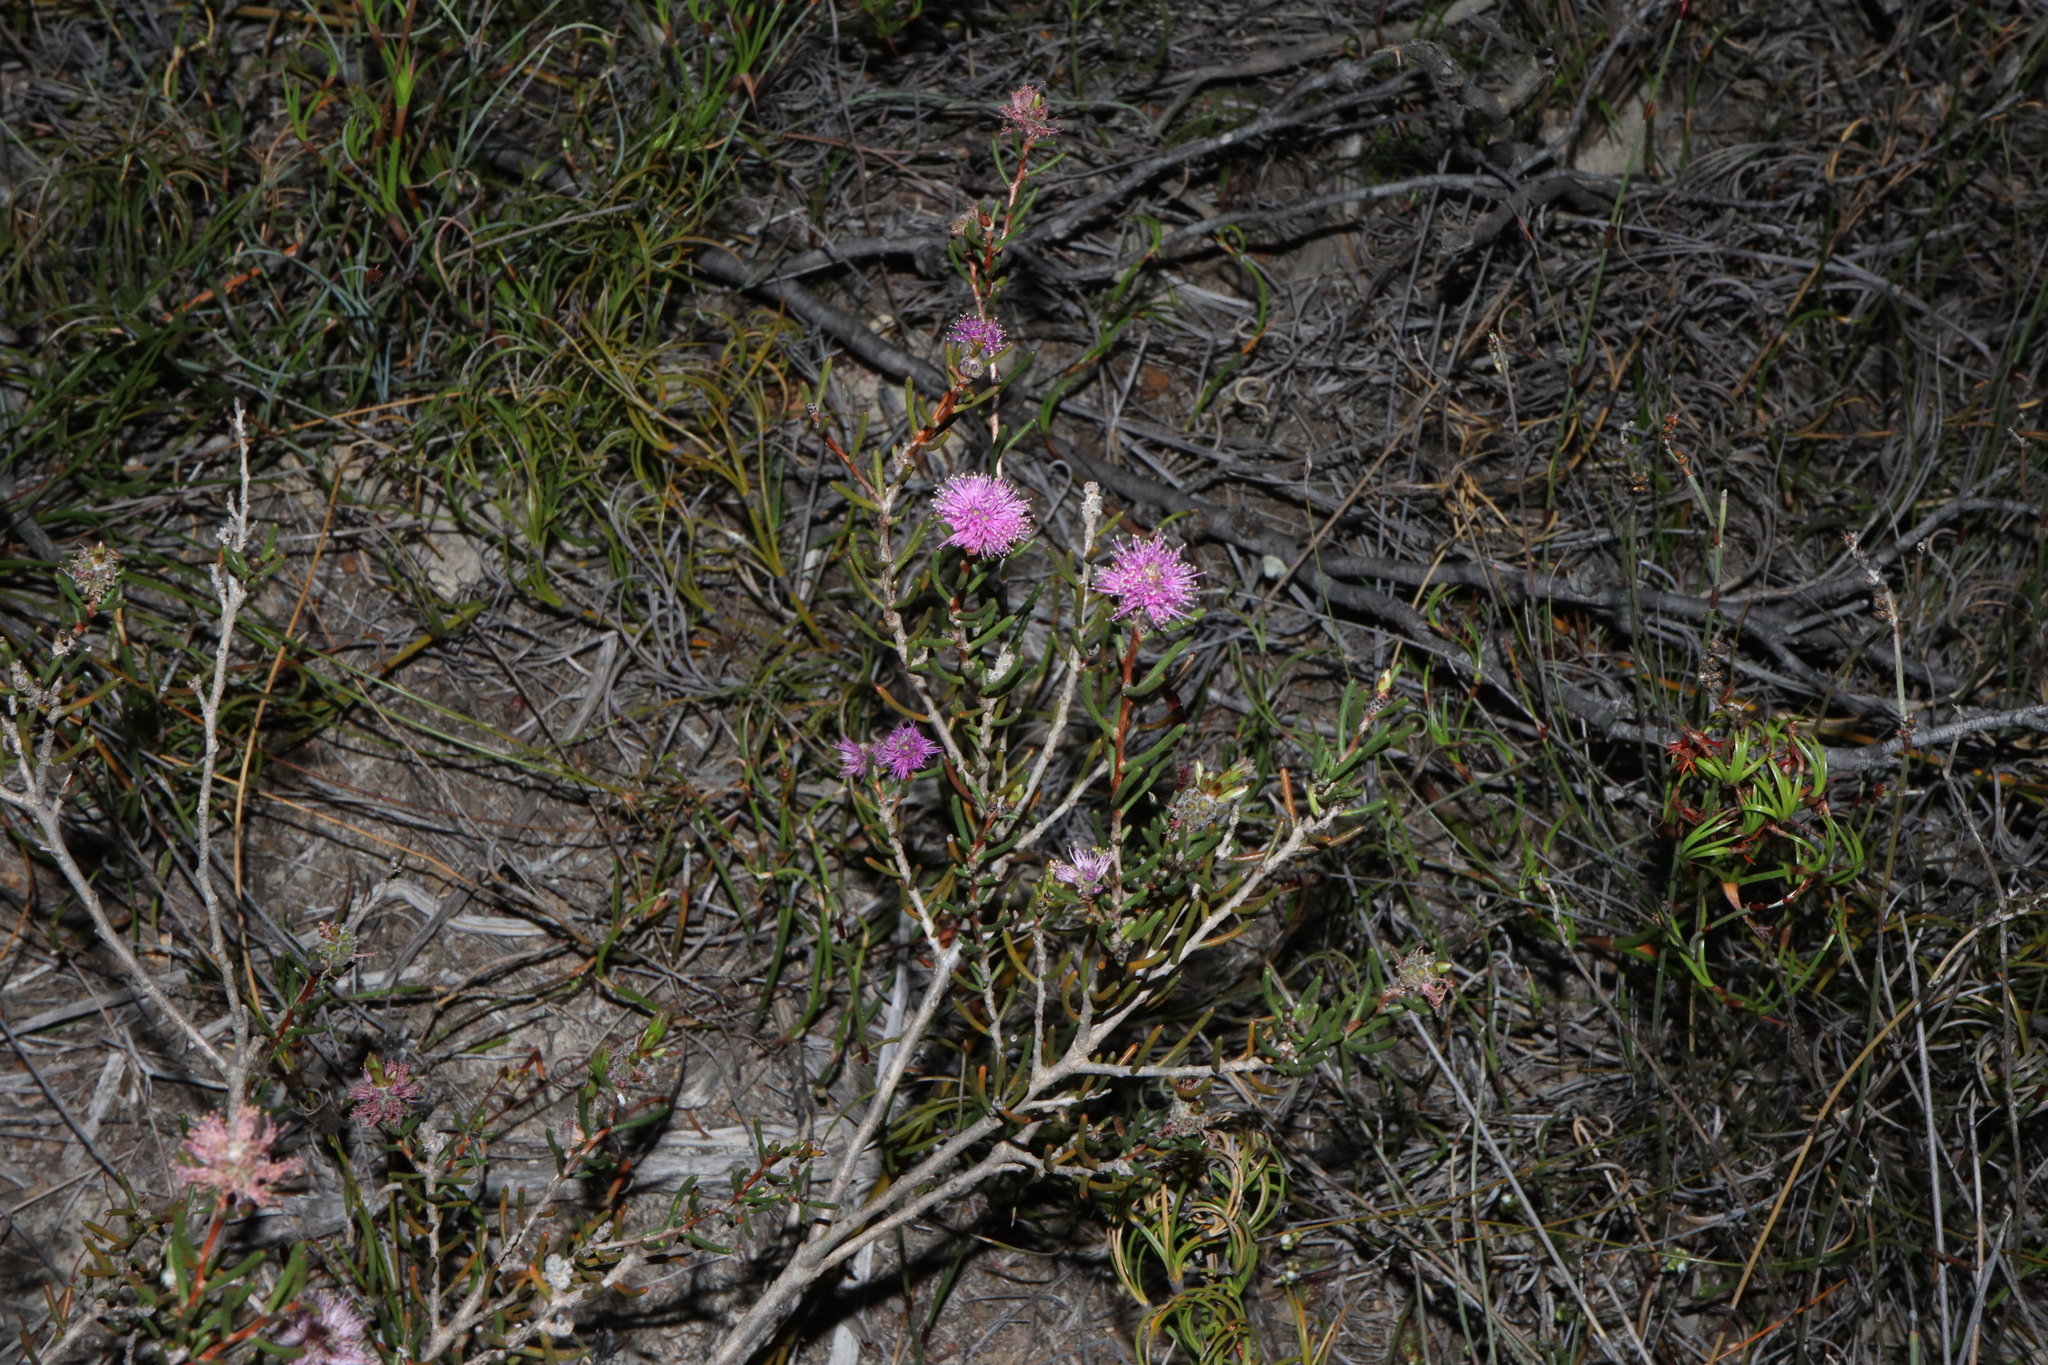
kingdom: Plantae
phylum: Tracheophyta
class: Magnoliopsida
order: Myrtales
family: Myrtaceae
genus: Melaleuca
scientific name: Melaleuca pentagona
